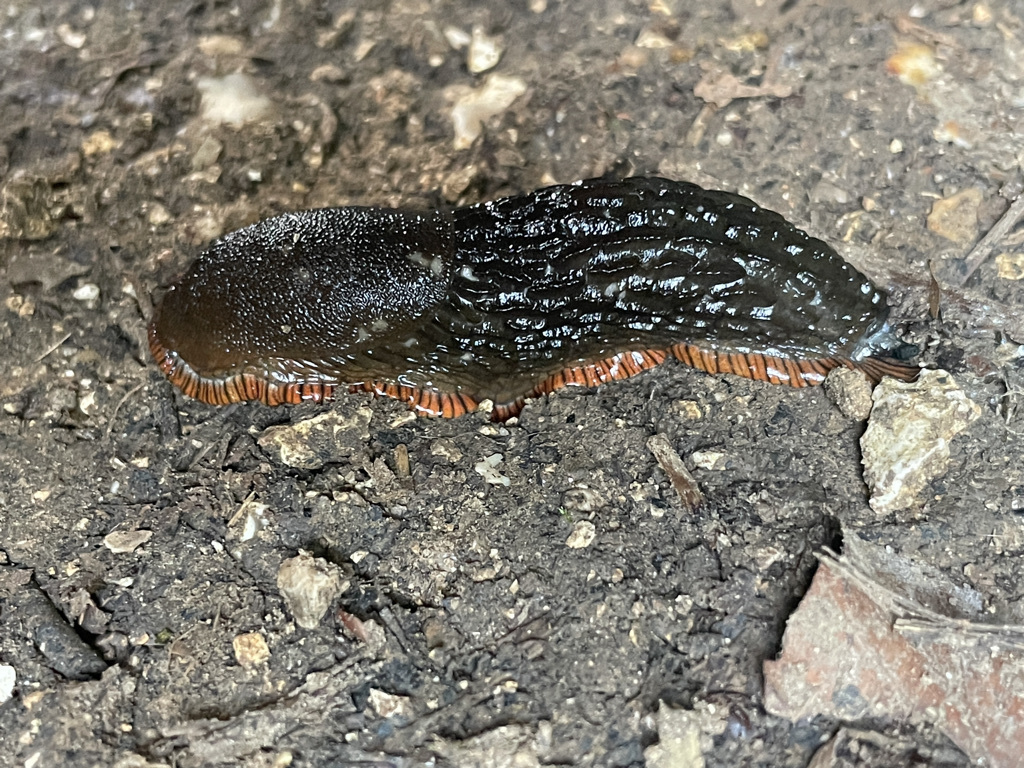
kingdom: Animalia
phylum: Mollusca
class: Gastropoda
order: Stylommatophora
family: Arionidae
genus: Arion
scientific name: Arion
